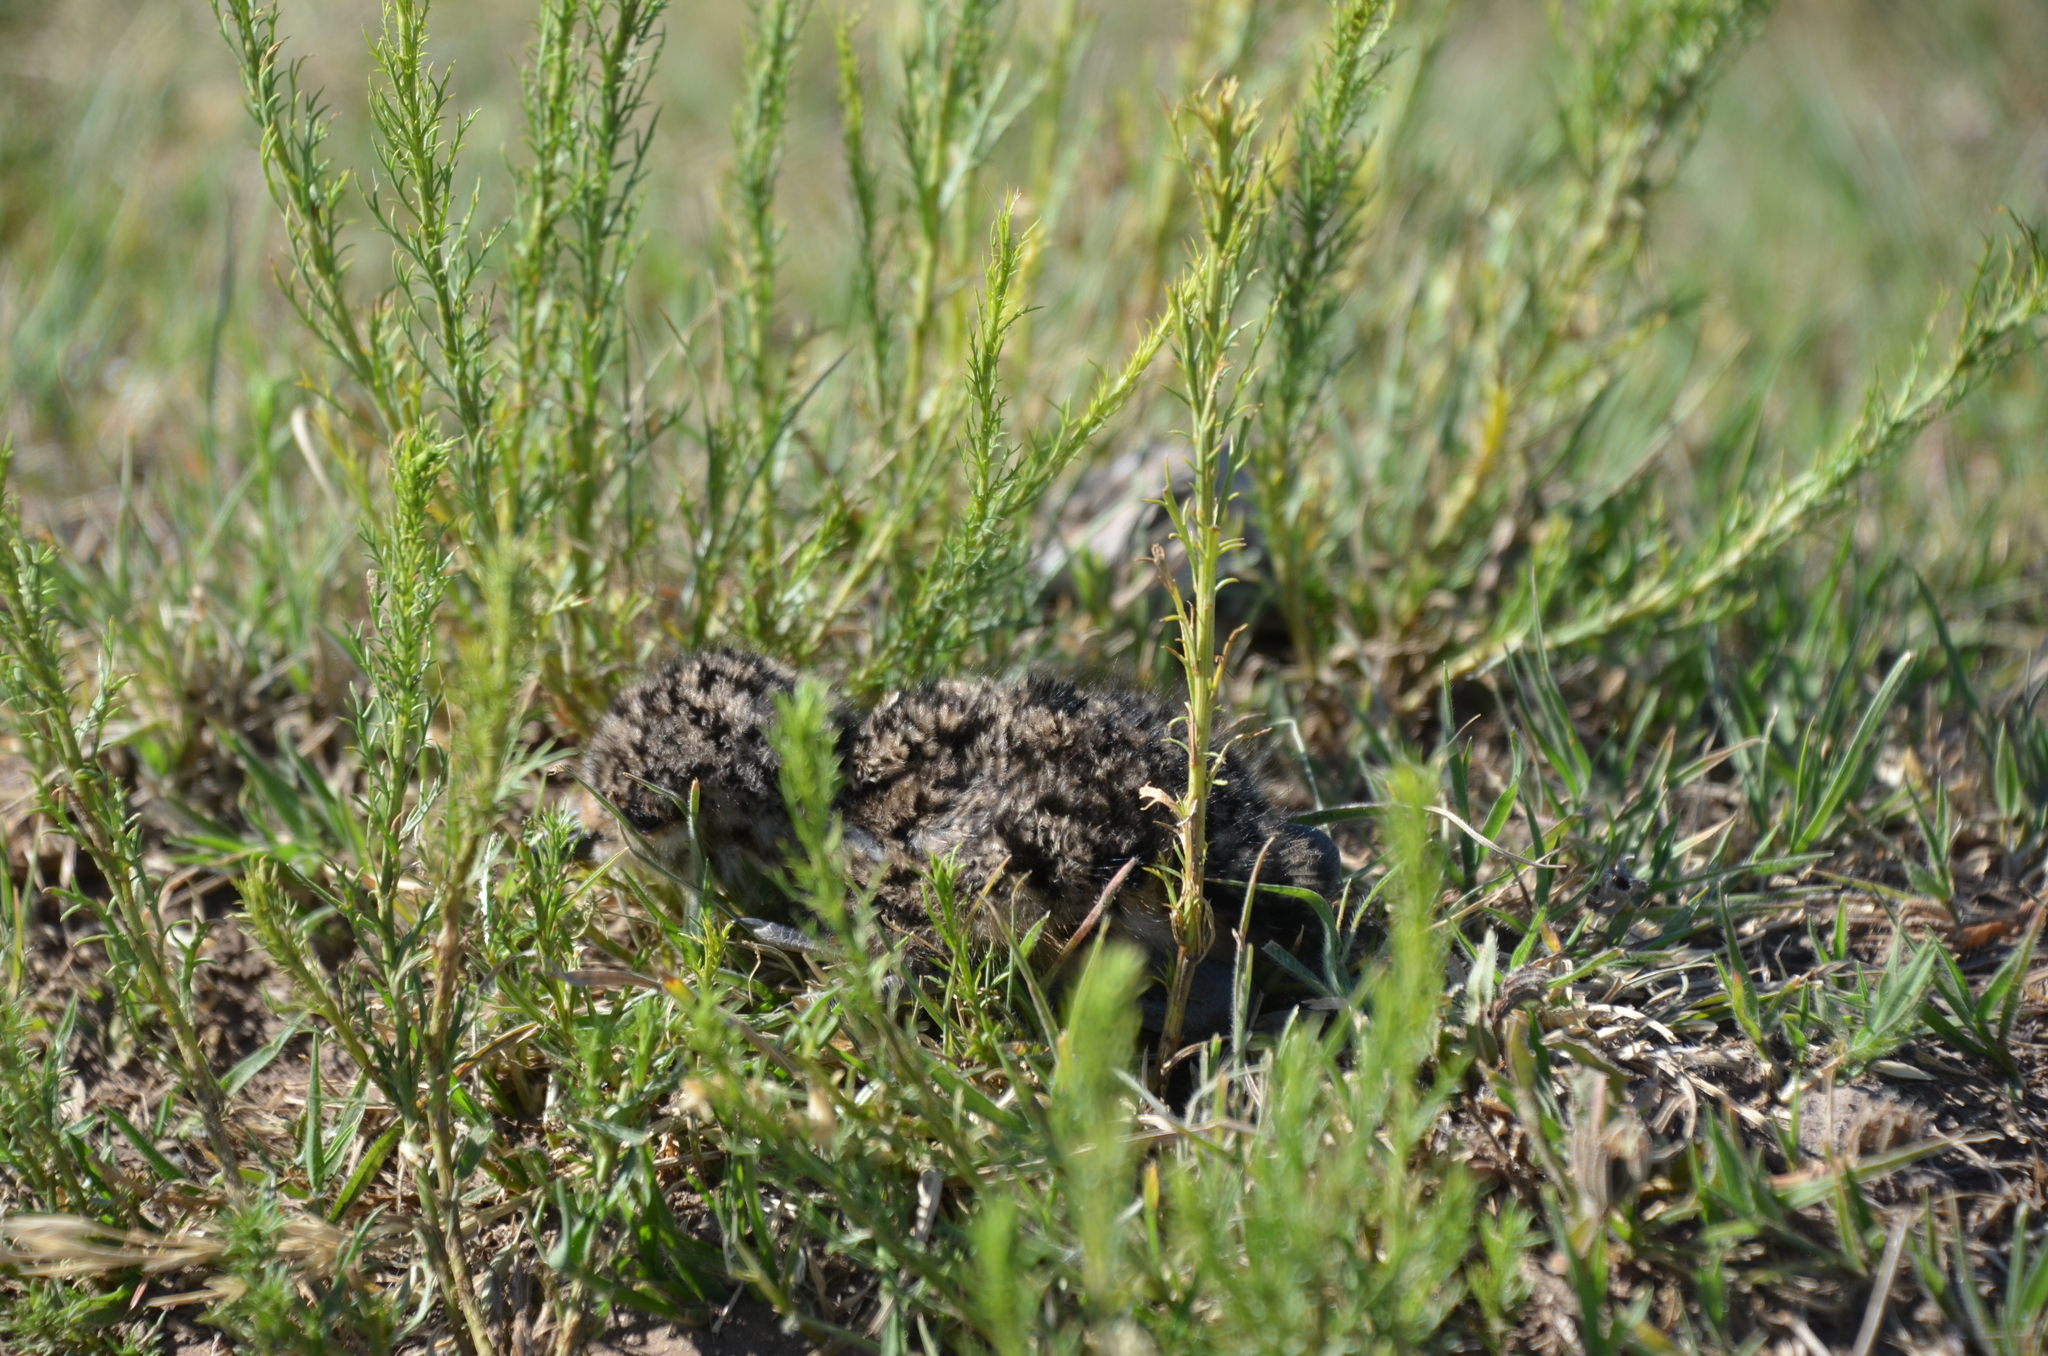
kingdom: Animalia
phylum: Chordata
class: Aves
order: Charadriiformes
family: Charadriidae
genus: Vanellus
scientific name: Vanellus chilensis
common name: Southern lapwing
